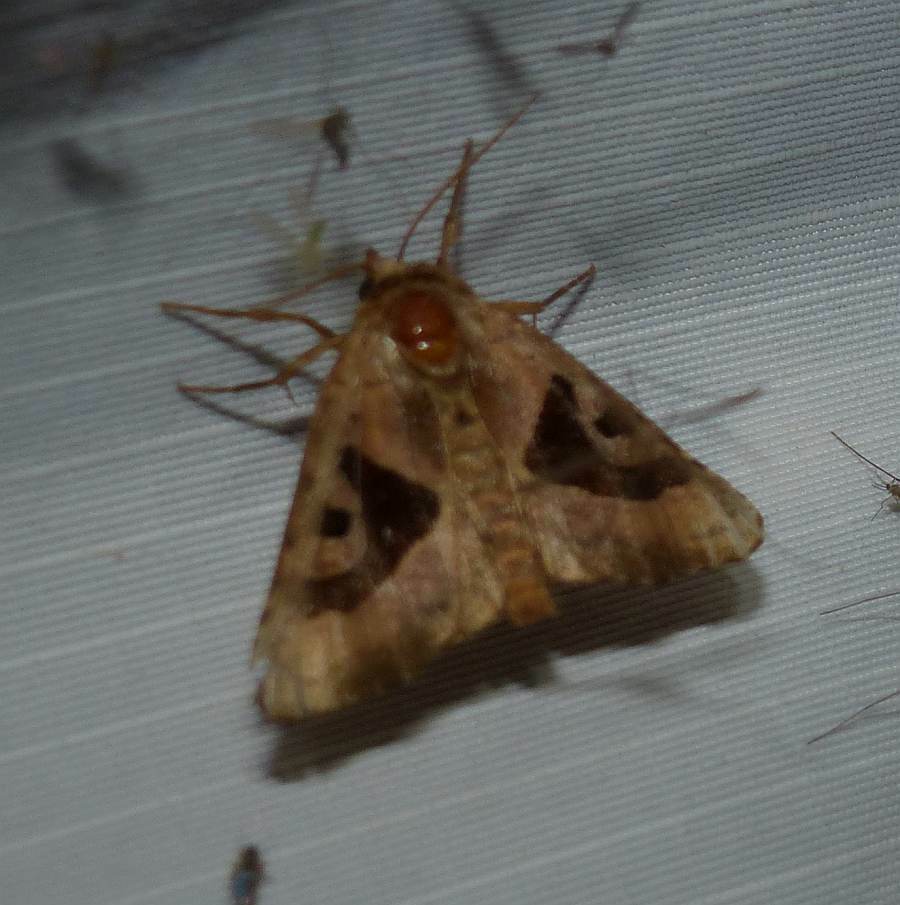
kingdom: Animalia
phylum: Arthropoda
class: Insecta
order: Lepidoptera
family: Noctuidae
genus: Conservula
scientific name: Conservula anodonta
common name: Sharp angle shades
